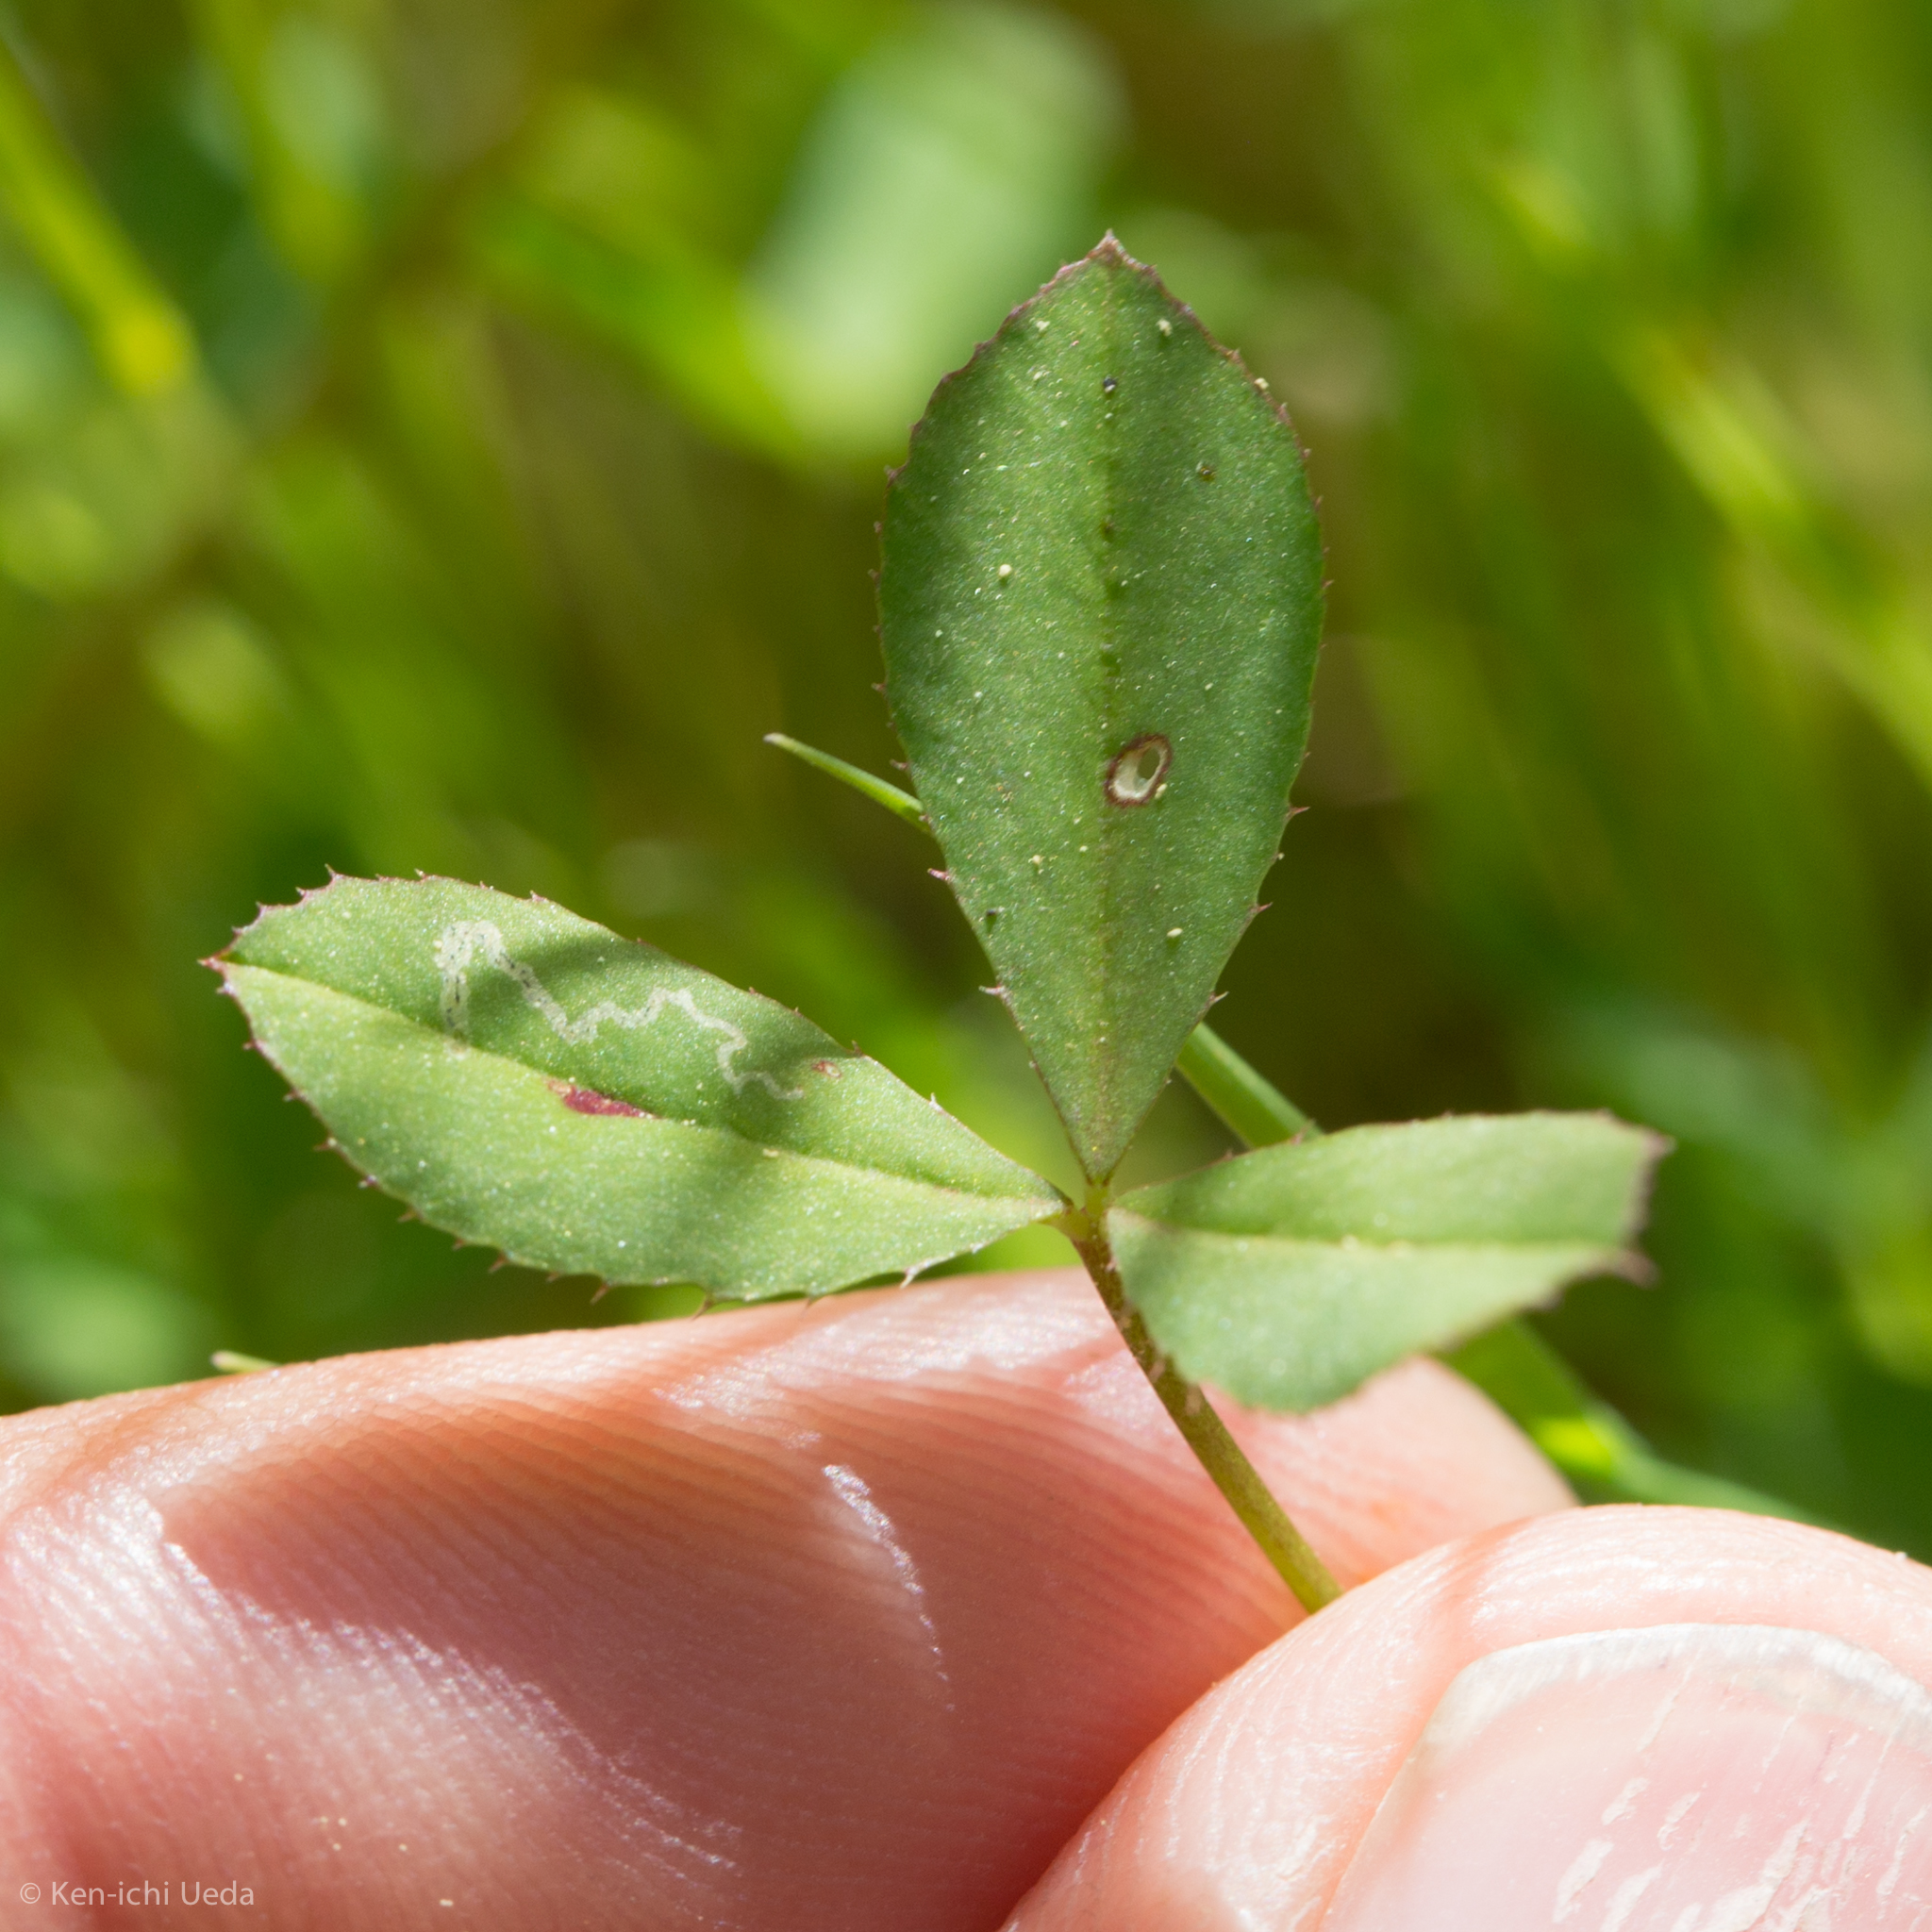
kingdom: Plantae
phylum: Tracheophyta
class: Magnoliopsida
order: Fabales
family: Fabaceae
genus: Trifolium
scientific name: Trifolium variegatum
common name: Whitetip clover
